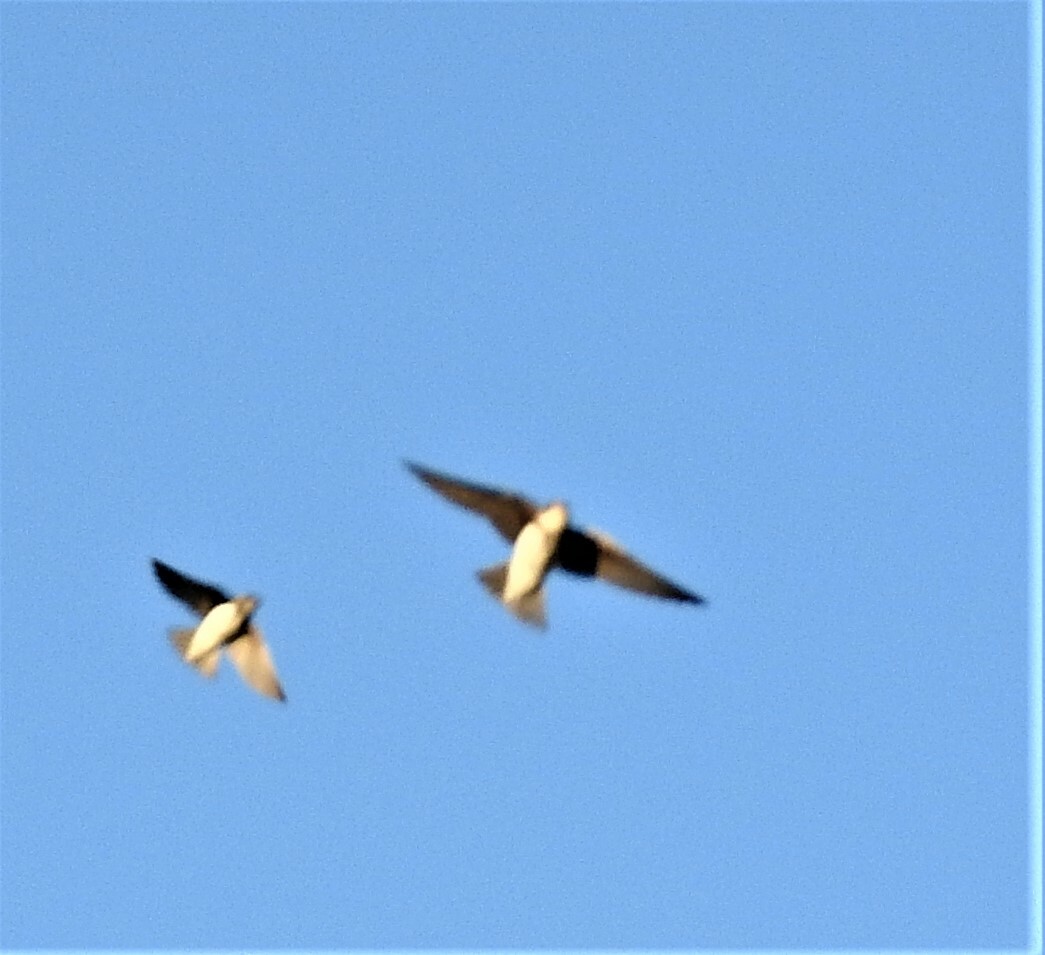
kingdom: Animalia
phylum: Chordata
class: Aves
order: Passeriformes
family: Hirundinidae
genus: Riparia
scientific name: Riparia riparia
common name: Sand martin
